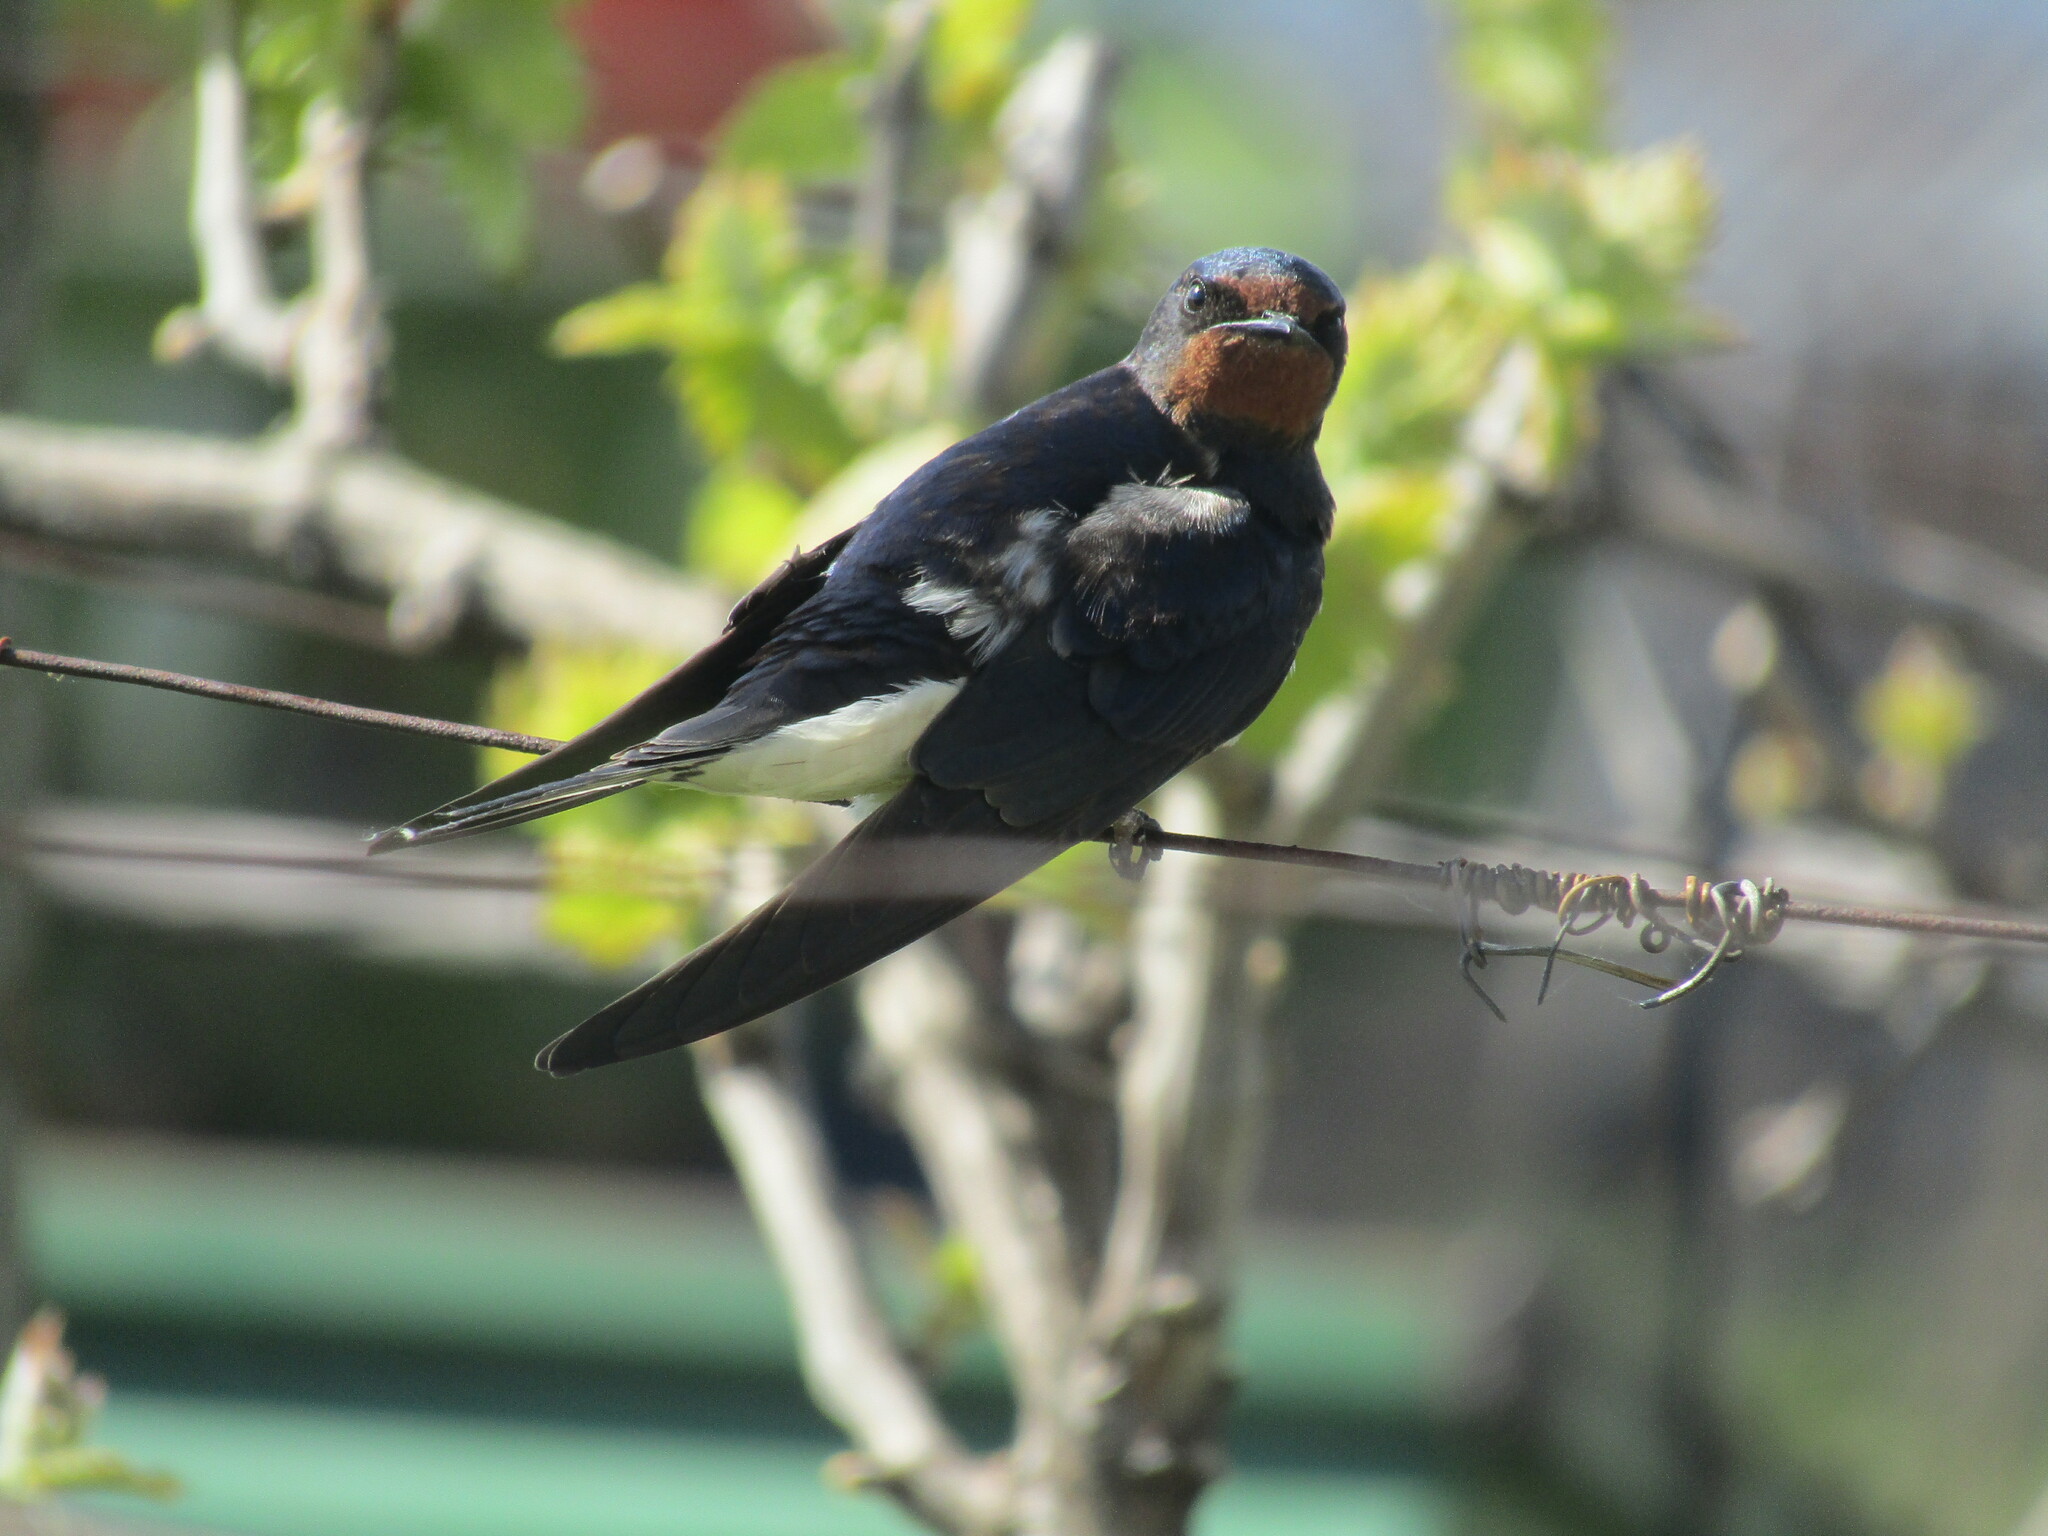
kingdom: Animalia
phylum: Chordata
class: Aves
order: Passeriformes
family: Hirundinidae
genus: Hirundo
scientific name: Hirundo rustica
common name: Barn swallow
